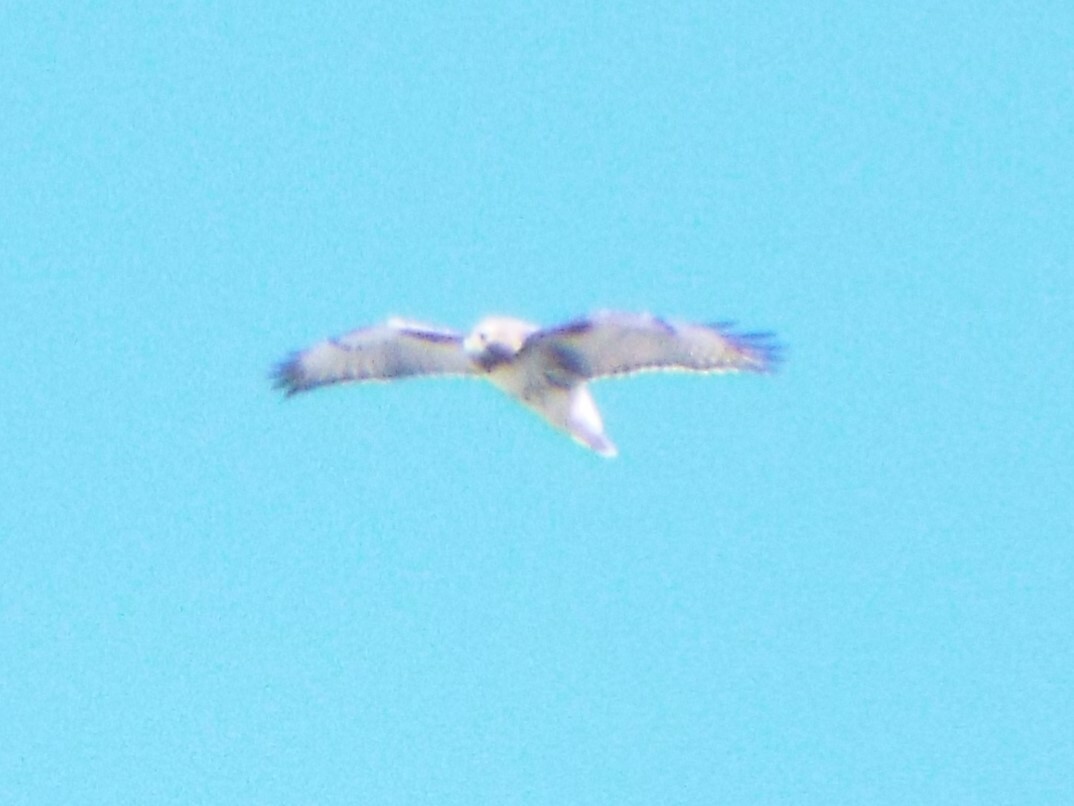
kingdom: Animalia
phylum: Chordata
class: Aves
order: Accipitriformes
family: Accipitridae
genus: Buteo
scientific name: Buteo jamaicensis
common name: Red-tailed hawk
